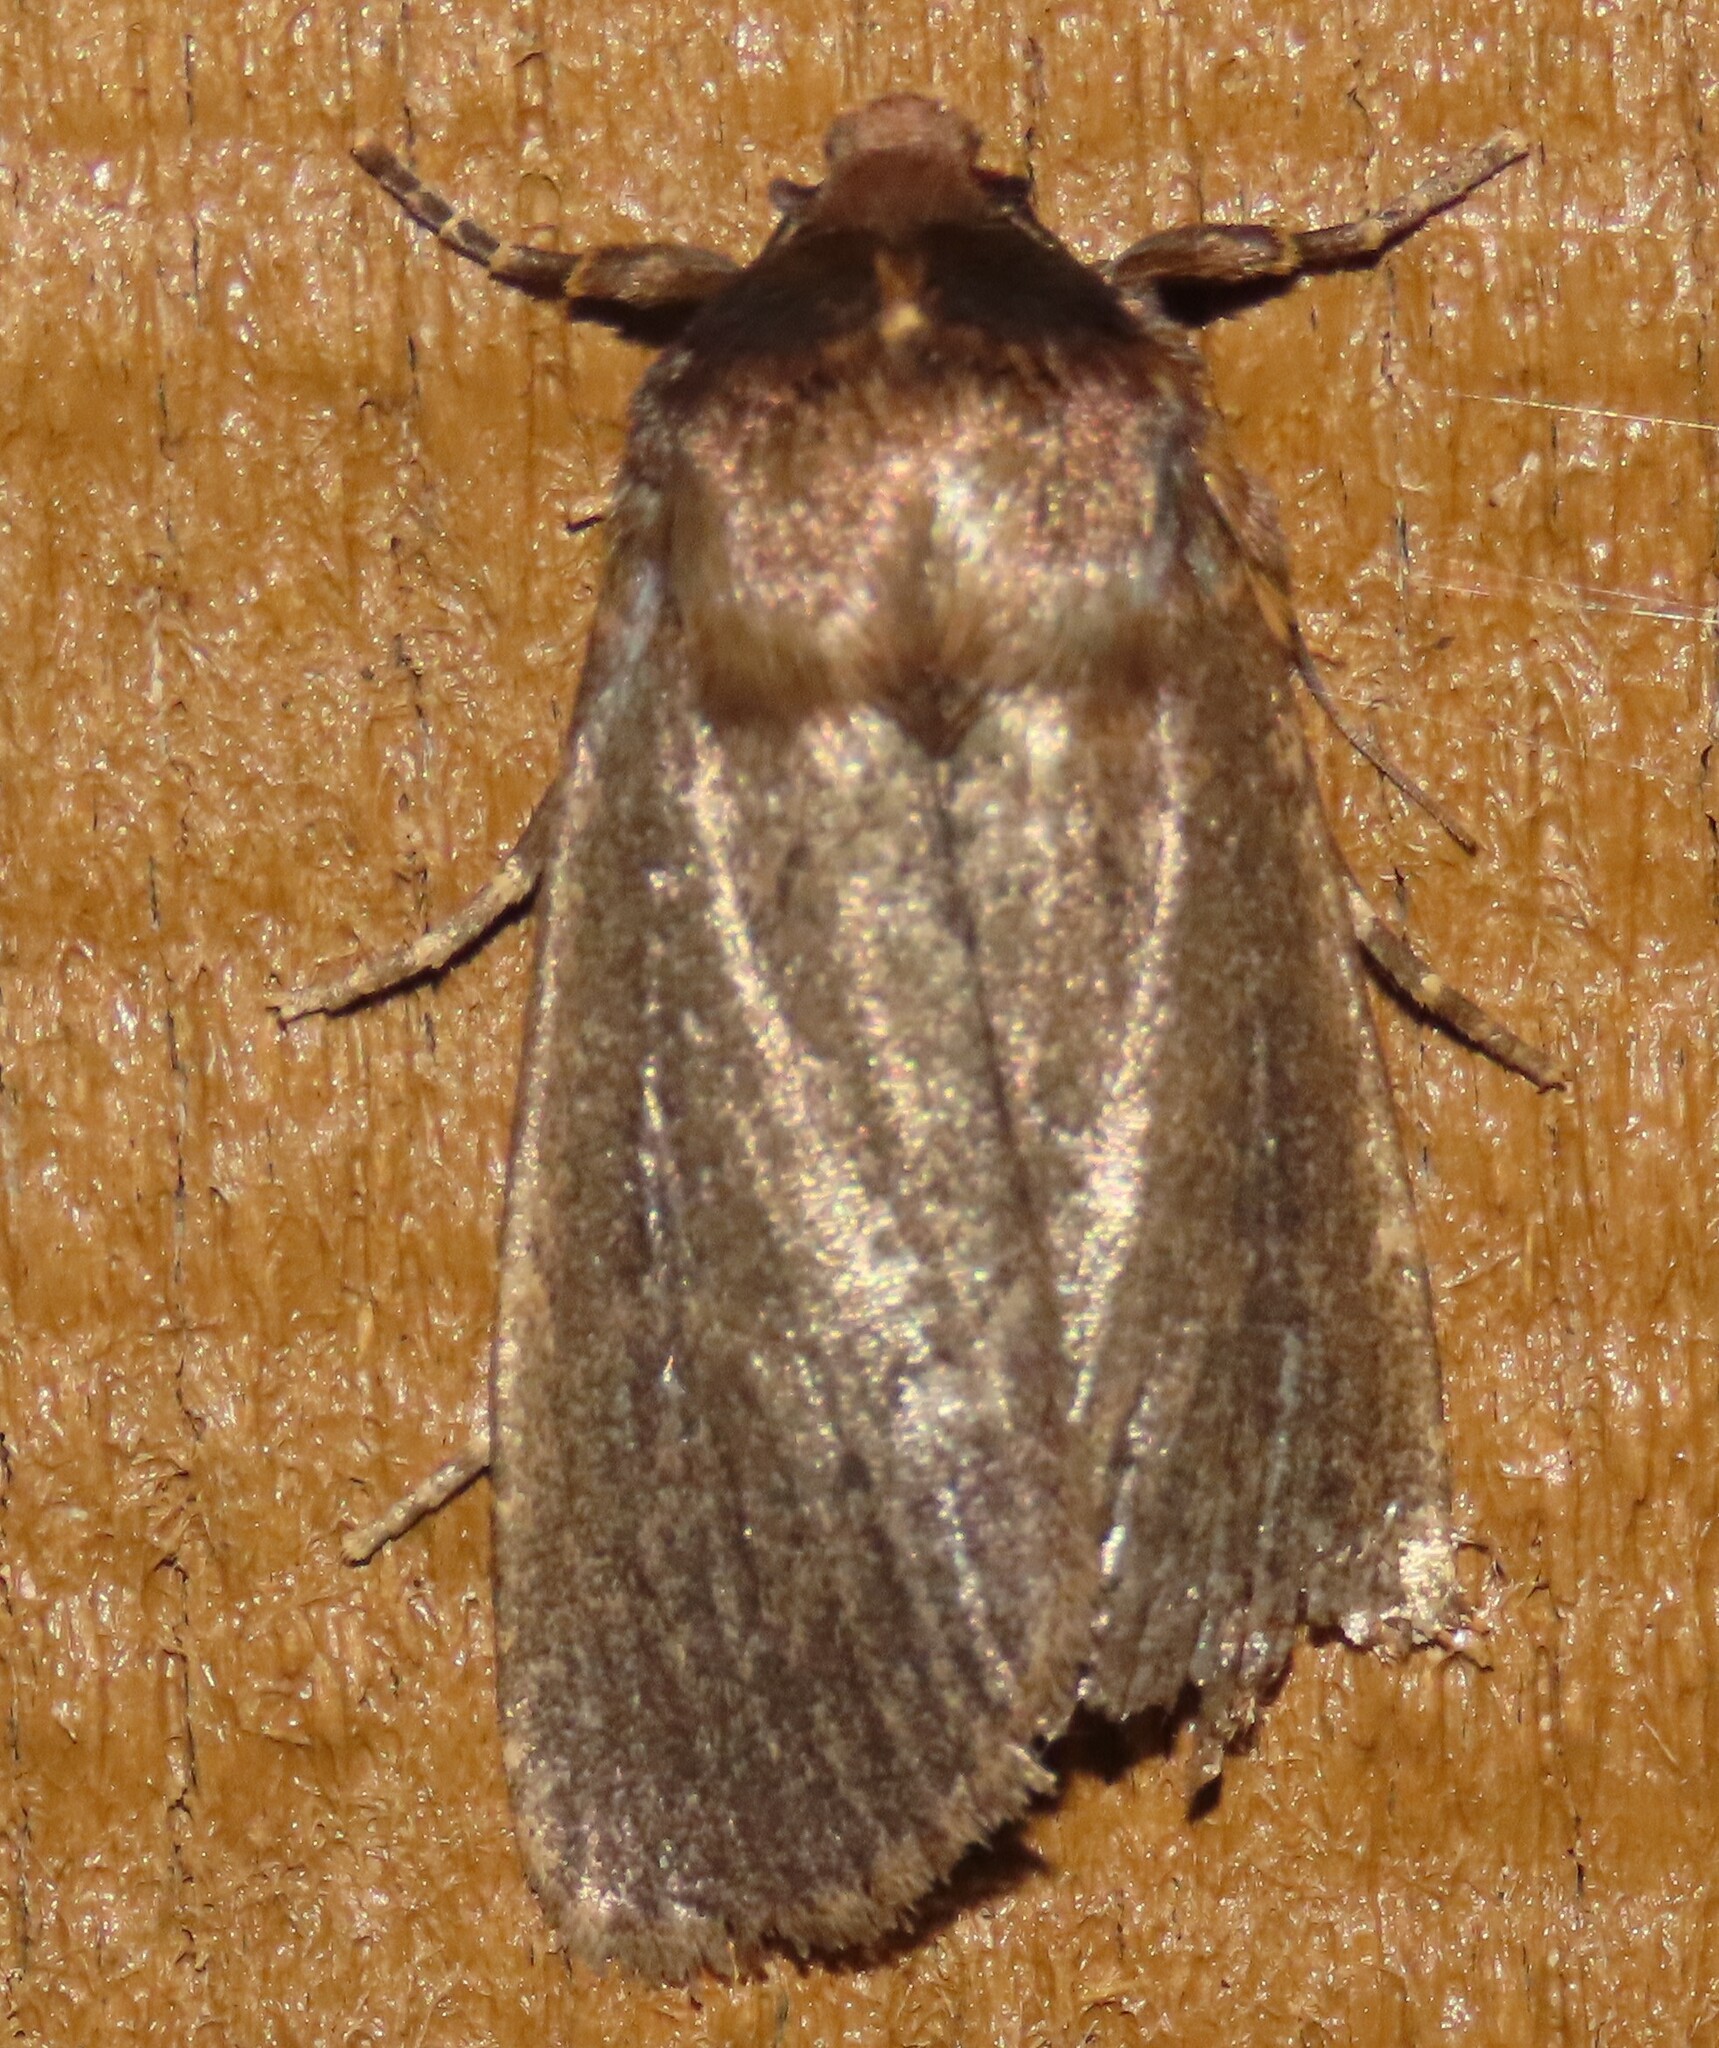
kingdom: Animalia
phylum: Arthropoda
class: Insecta
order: Lepidoptera
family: Noctuidae
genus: Bityla
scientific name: Bityla defigurata
